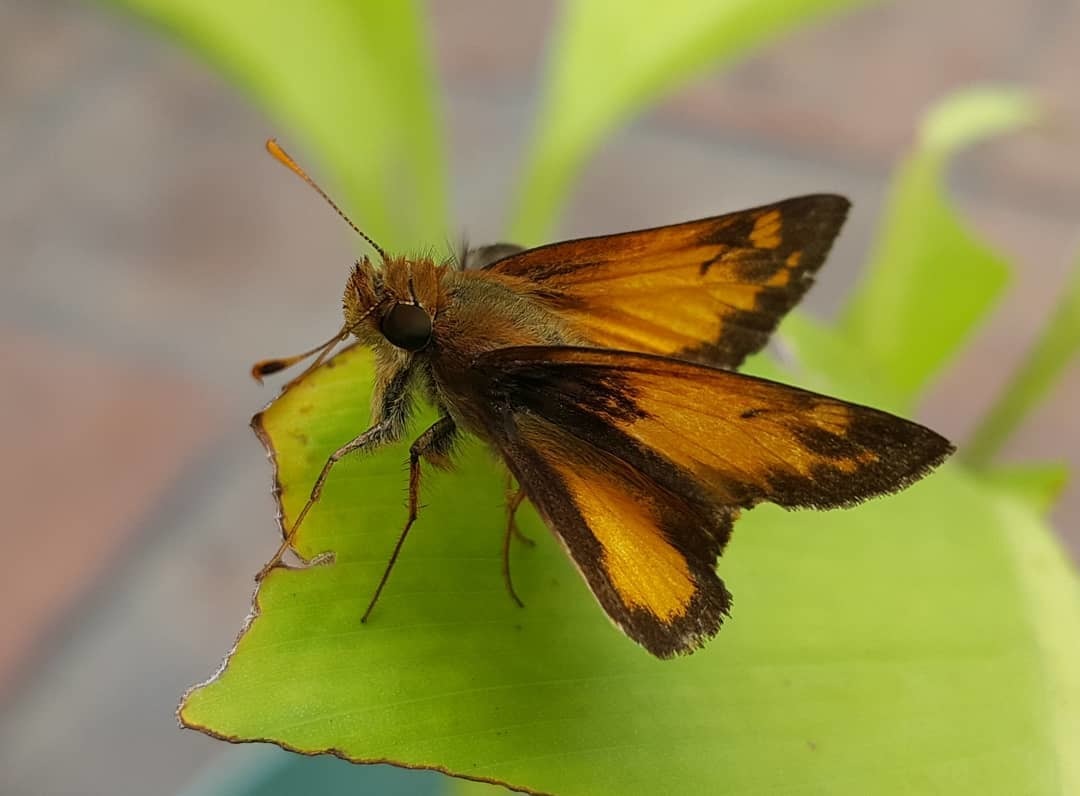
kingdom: Animalia
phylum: Arthropoda
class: Insecta
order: Lepidoptera
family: Hesperiidae
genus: Lon
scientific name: Lon zabulon
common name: Zabulon skipper
